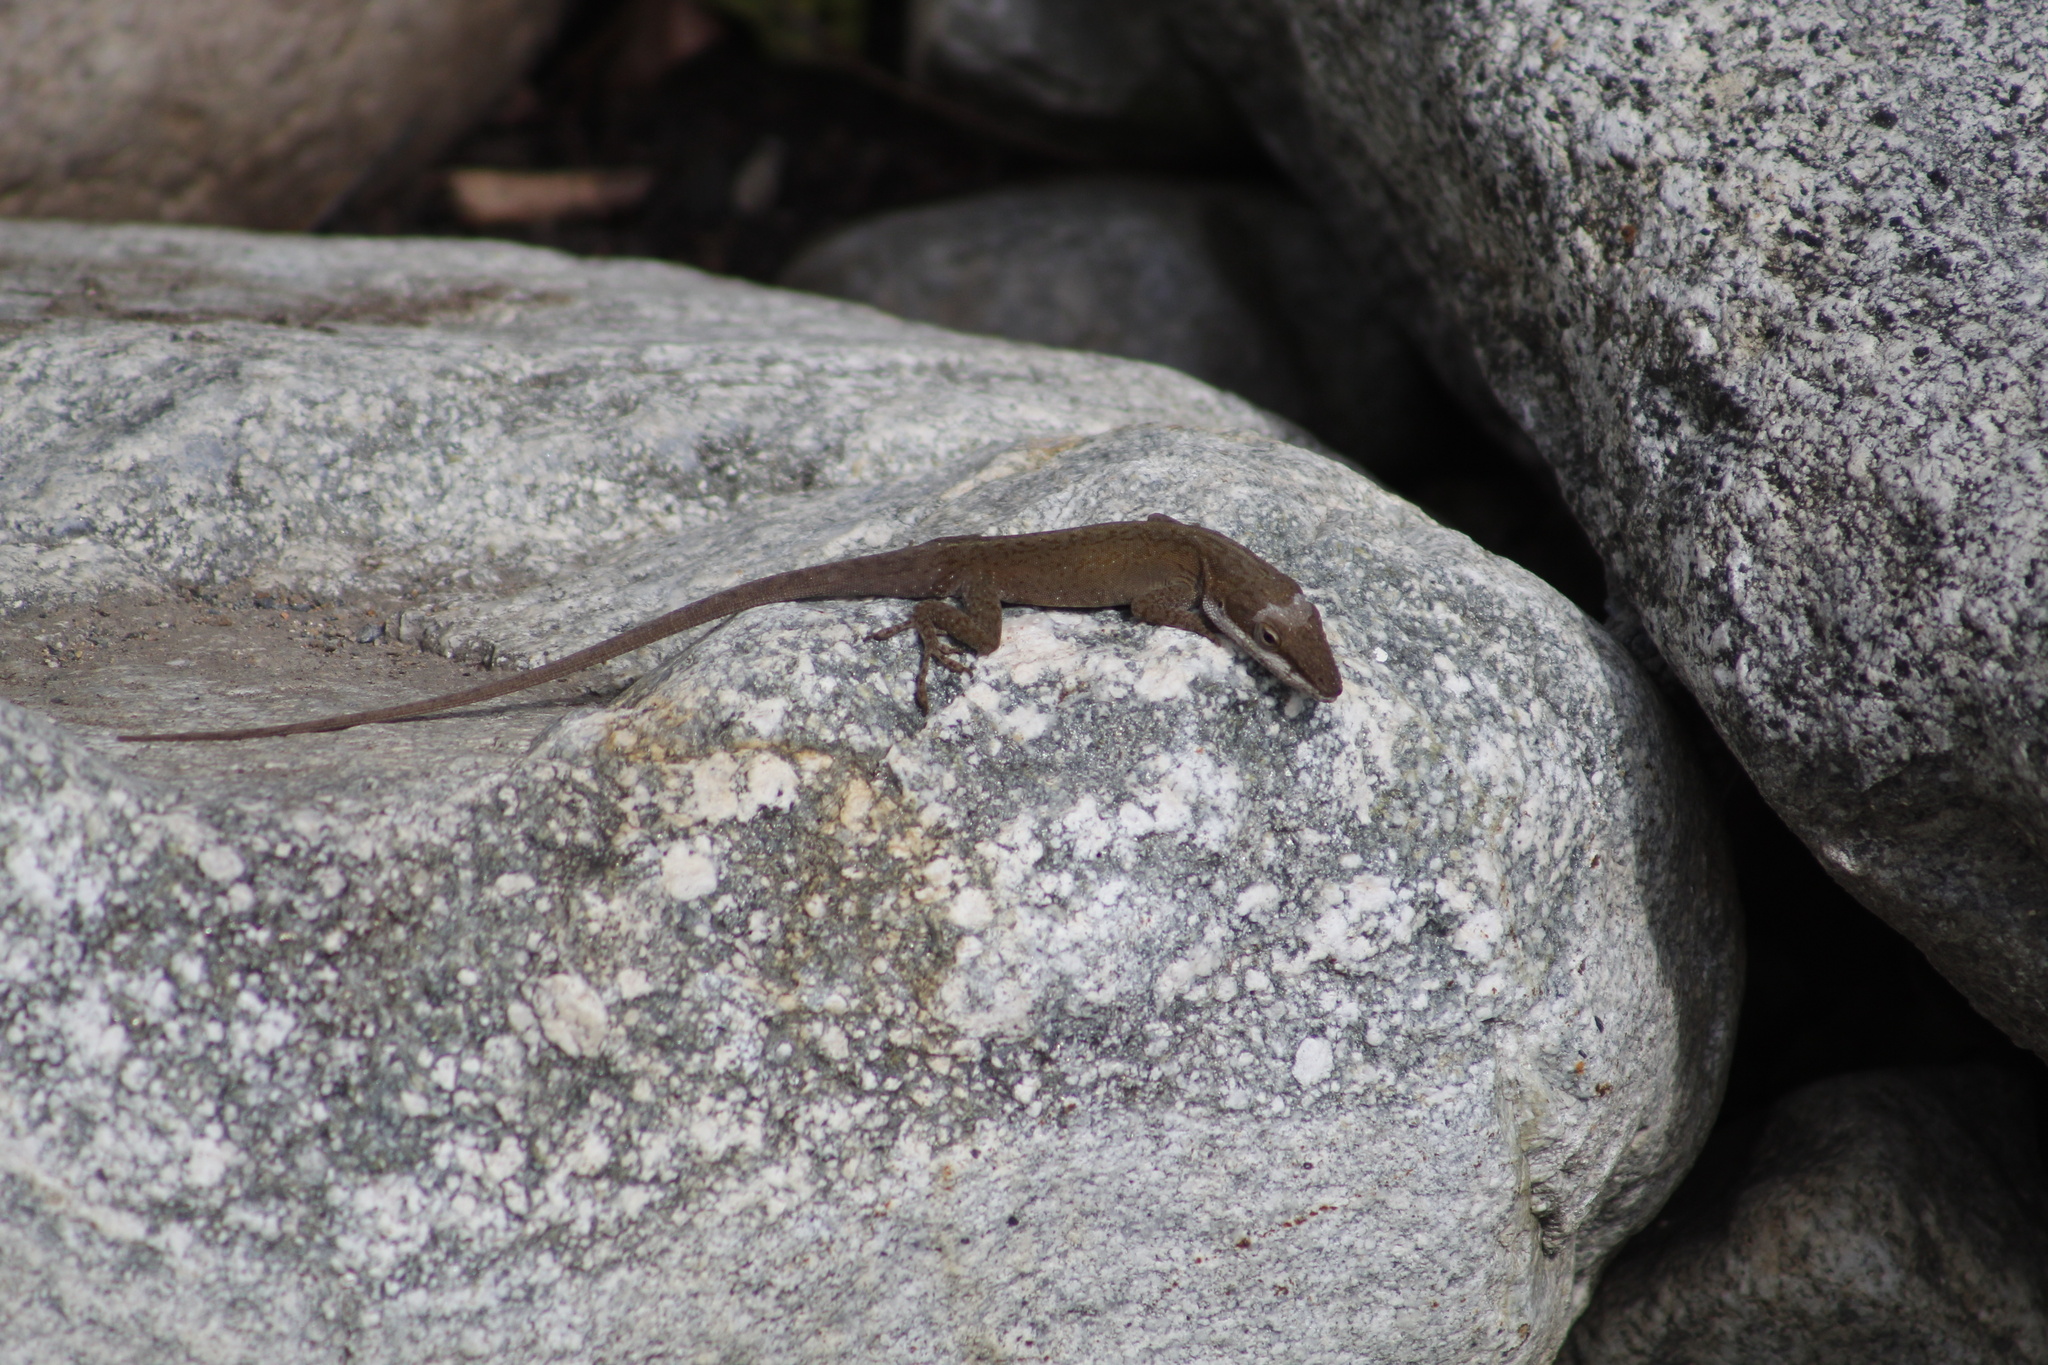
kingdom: Animalia
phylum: Chordata
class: Squamata
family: Dactyloidae
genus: Anolis
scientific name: Anolis carolinensis
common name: Green anole
